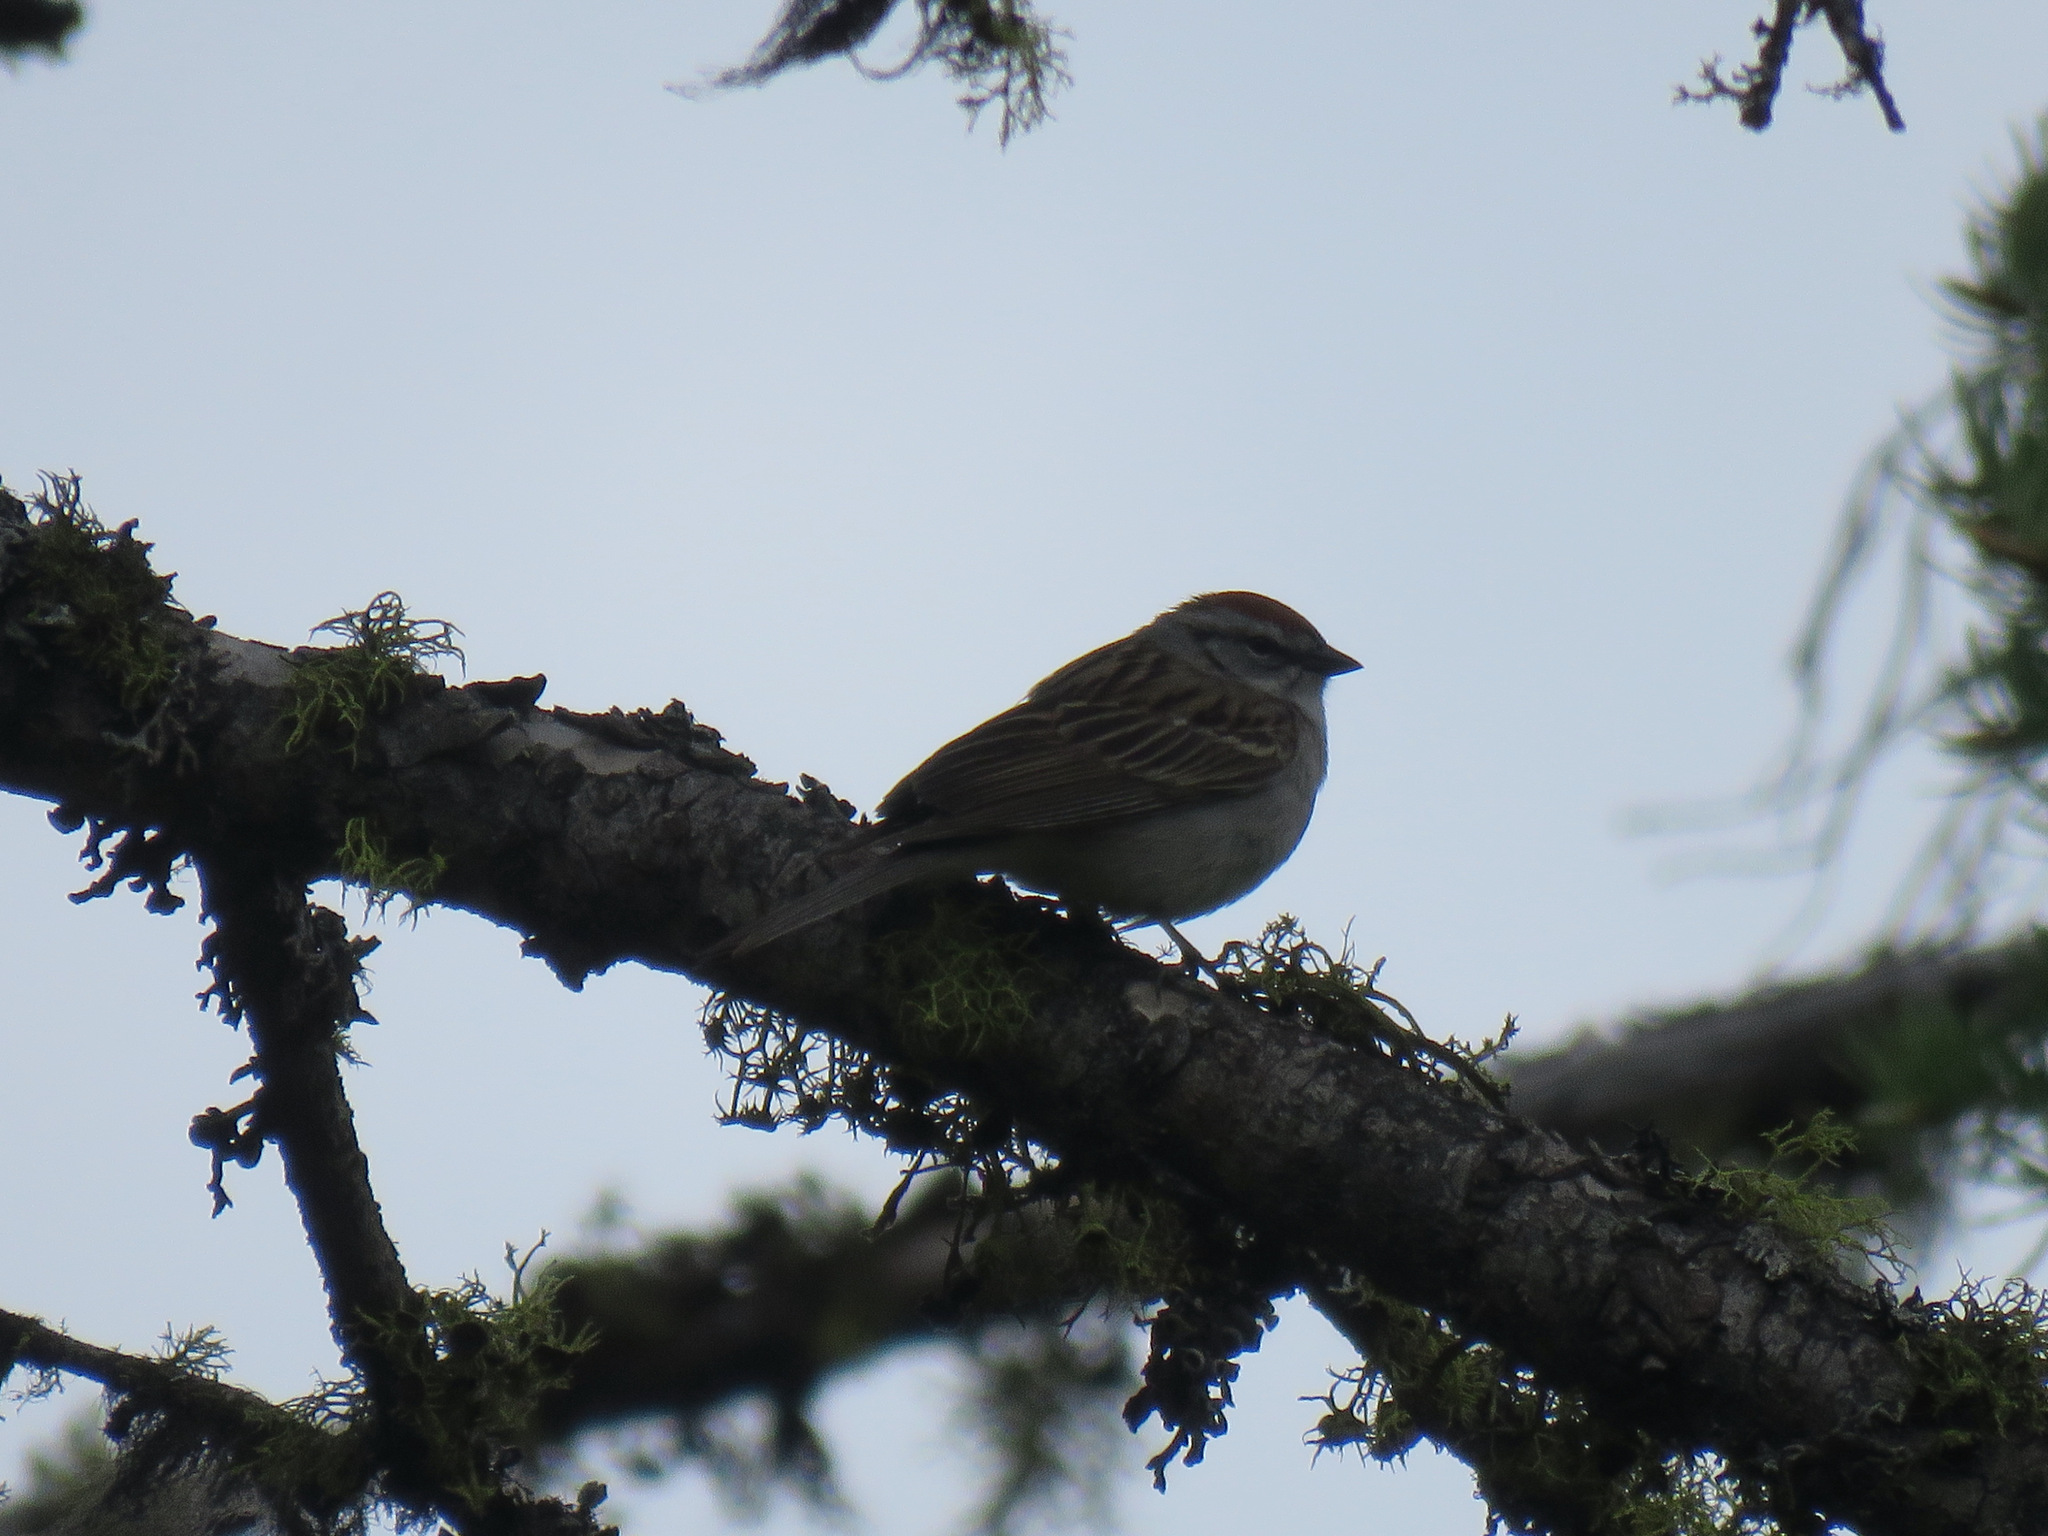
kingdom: Animalia
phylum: Chordata
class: Aves
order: Passeriformes
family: Passerellidae
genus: Spizella
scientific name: Spizella passerina
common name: Chipping sparrow
